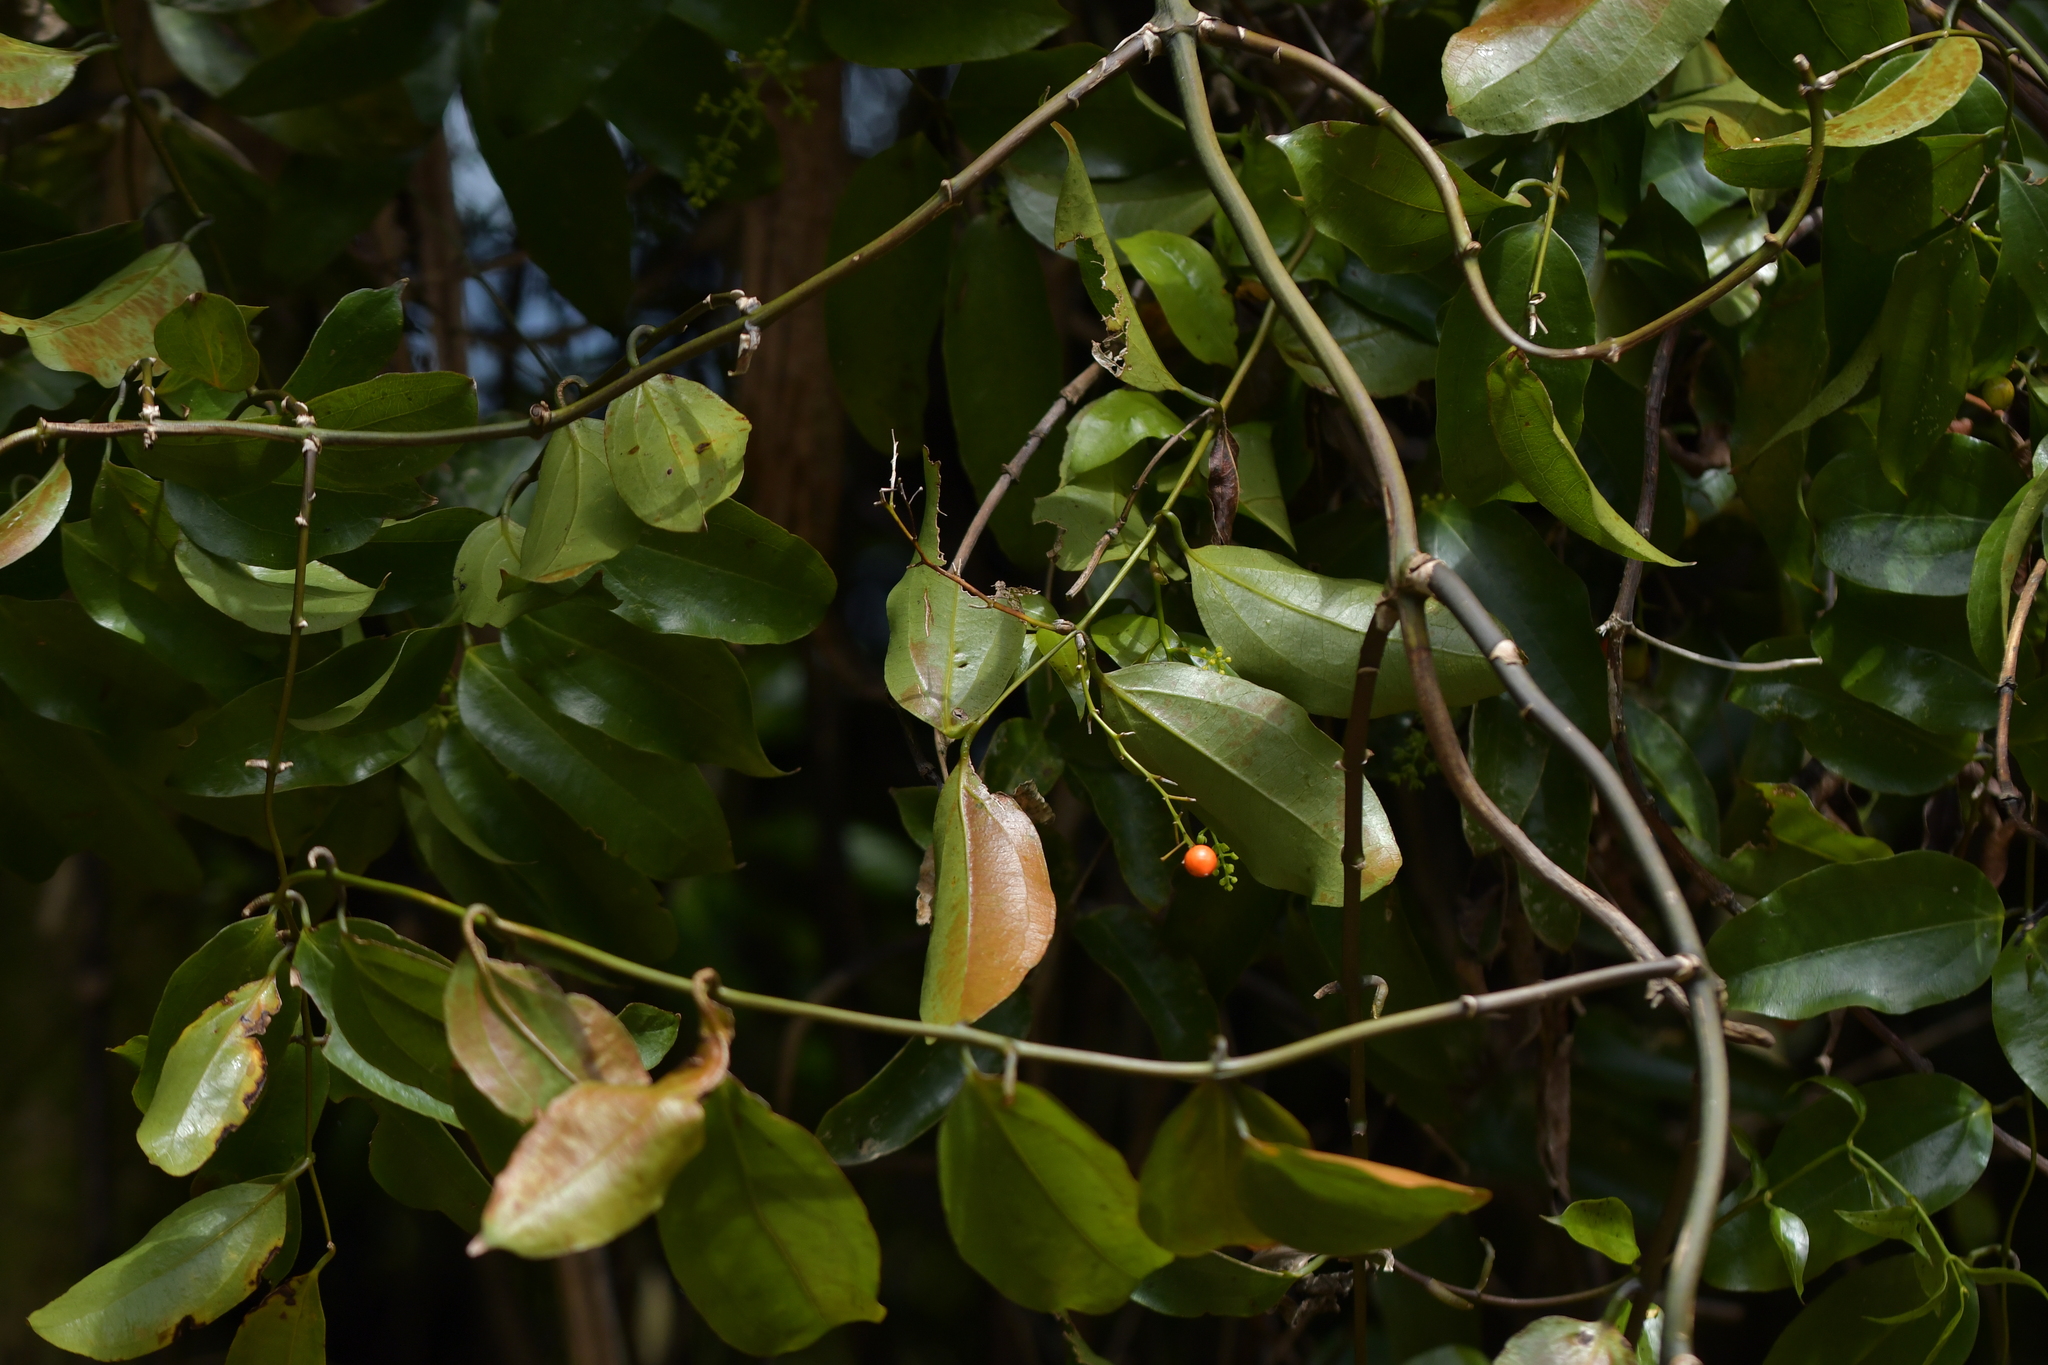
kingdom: Plantae
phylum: Tracheophyta
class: Liliopsida
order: Liliales
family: Ripogonaceae
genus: Ripogonum
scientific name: Ripogonum scandens
